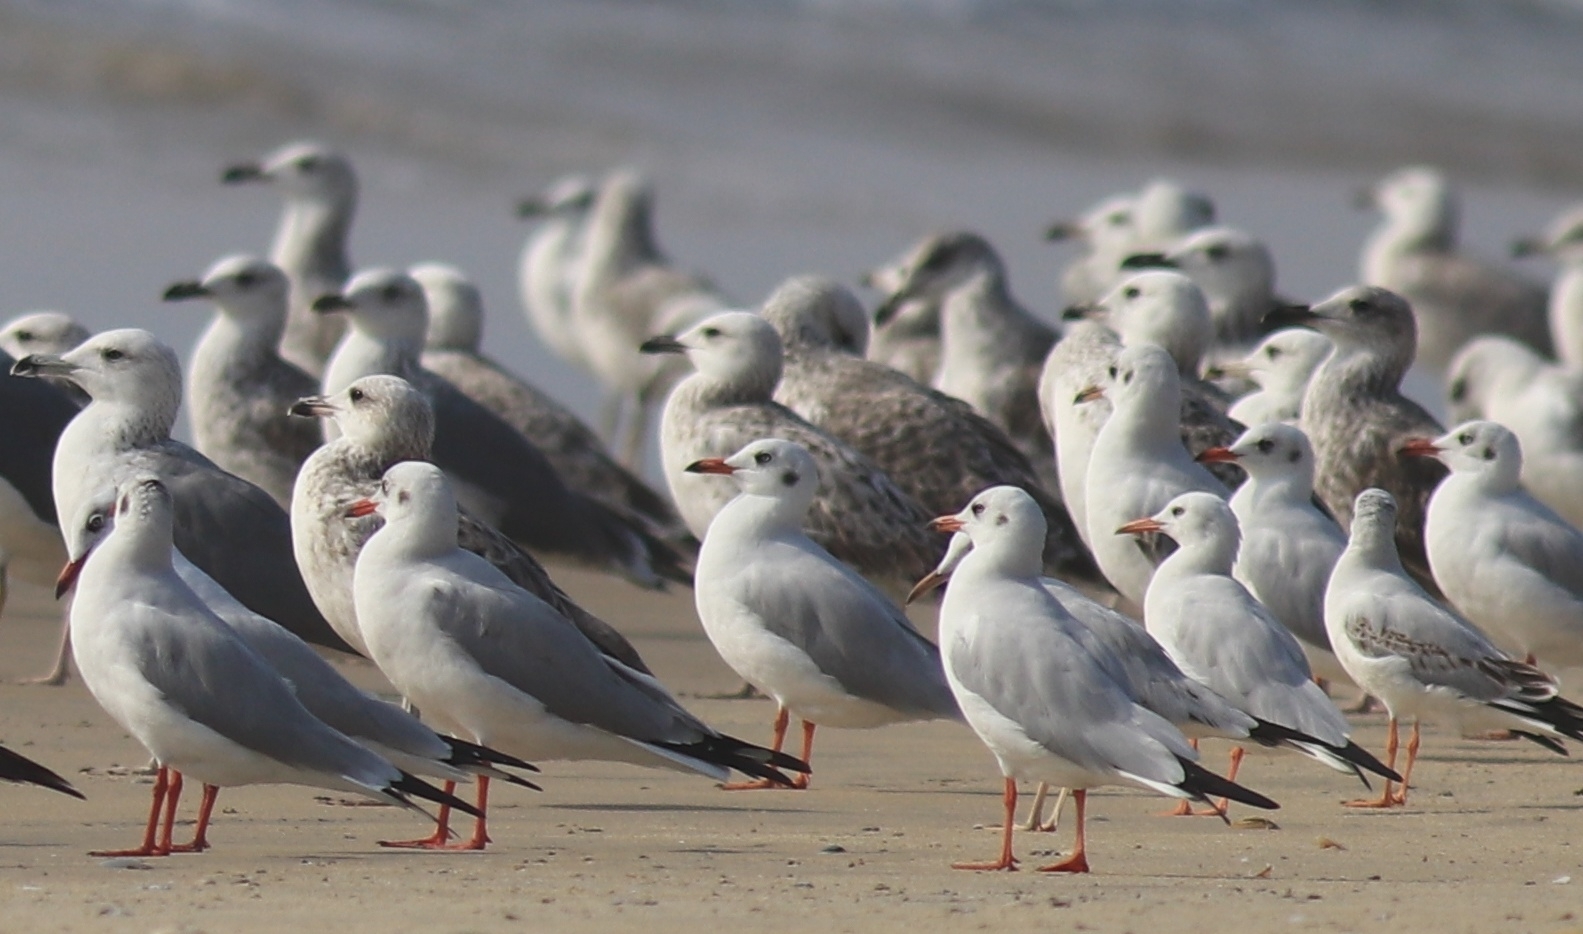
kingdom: Animalia
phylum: Chordata
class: Aves
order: Charadriiformes
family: Laridae
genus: Chroicocephalus
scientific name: Chroicocephalus brunnicephalus
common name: Brown-headed gull
